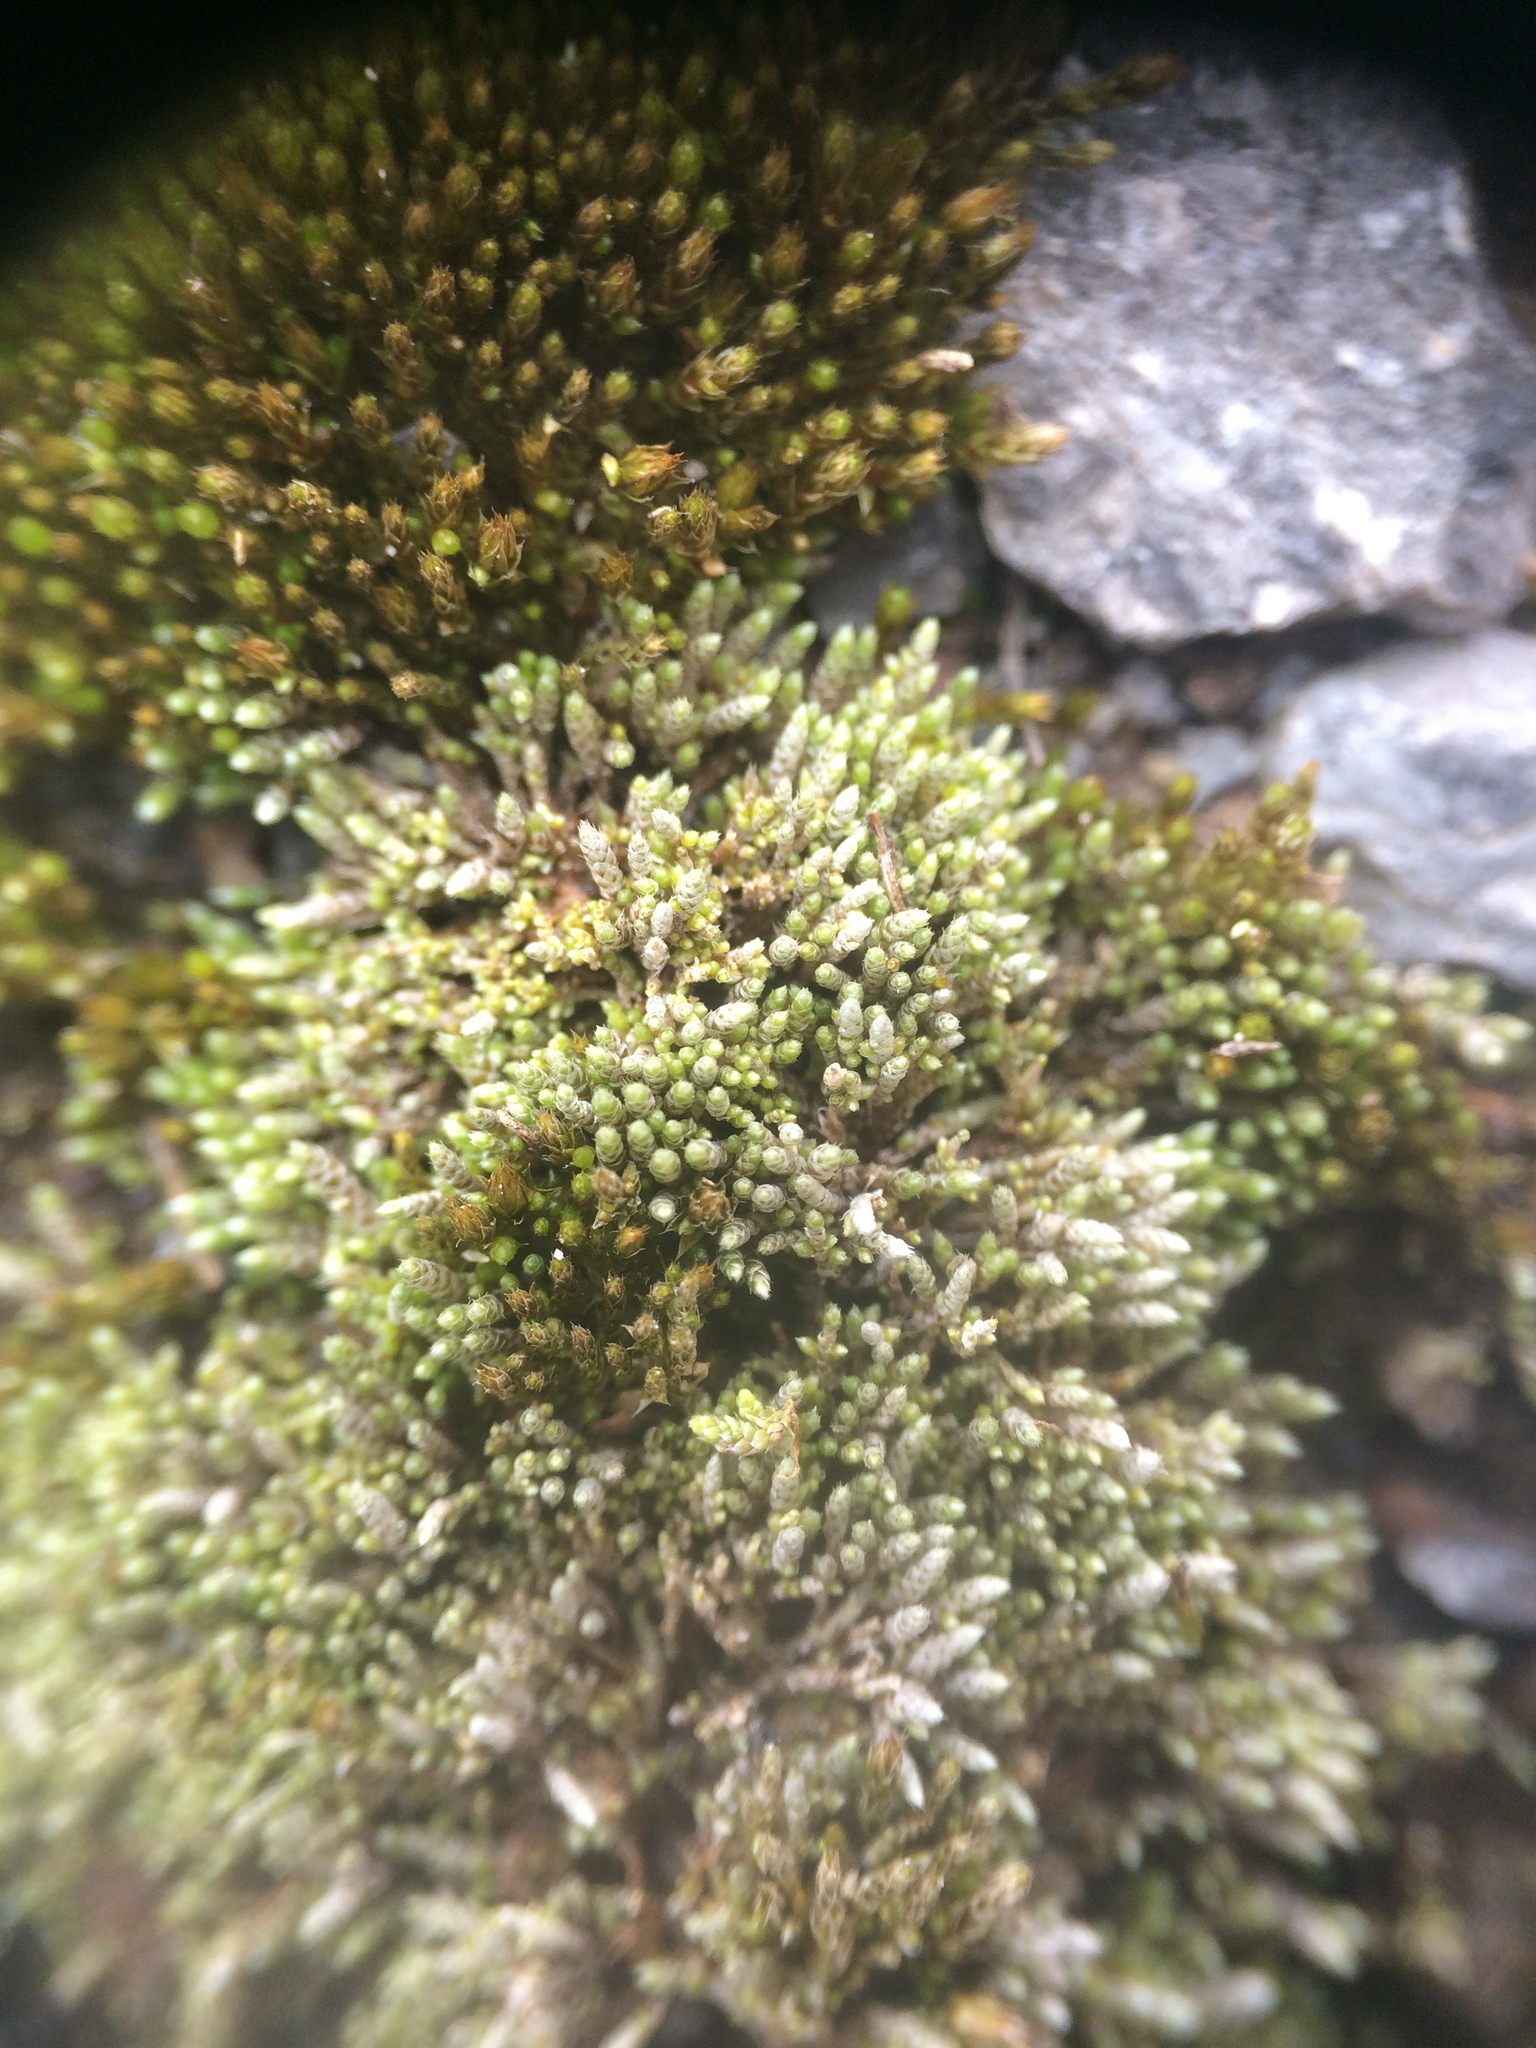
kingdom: Plantae
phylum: Bryophyta
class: Bryopsida
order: Bryales
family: Bryaceae
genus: Bryum
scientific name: Bryum argenteum
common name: Silver-moss
